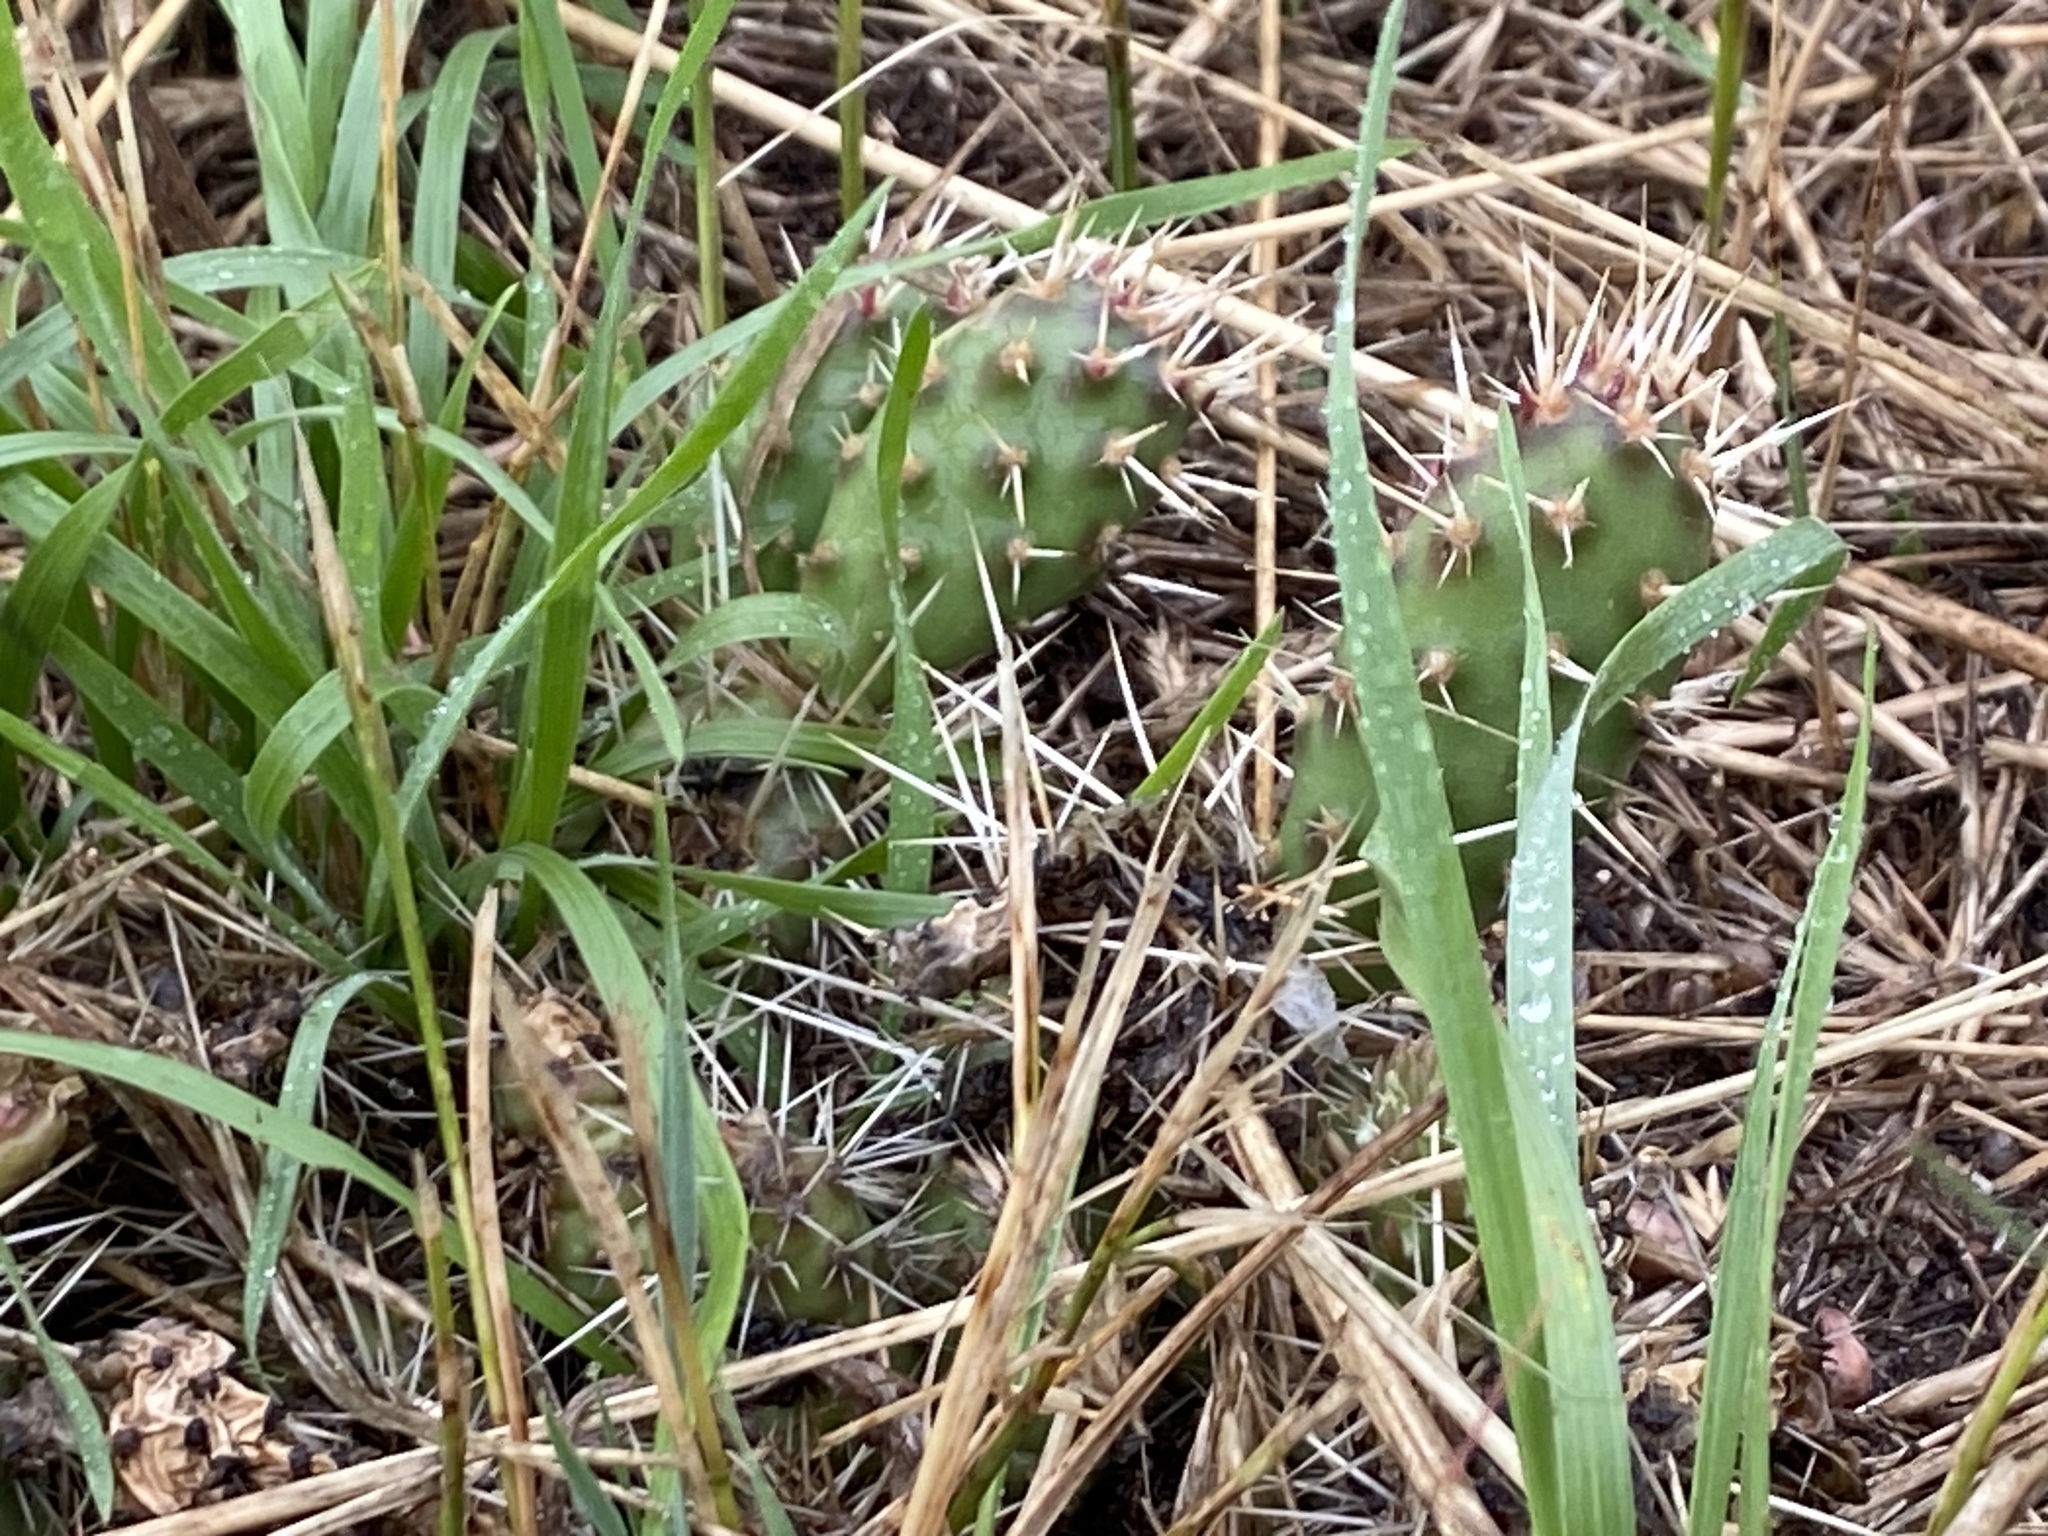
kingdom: Plantae
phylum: Tracheophyta
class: Magnoliopsida
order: Caryophyllales
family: Cactaceae
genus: Opuntia
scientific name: Opuntia fragilis
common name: Brittle cactus
